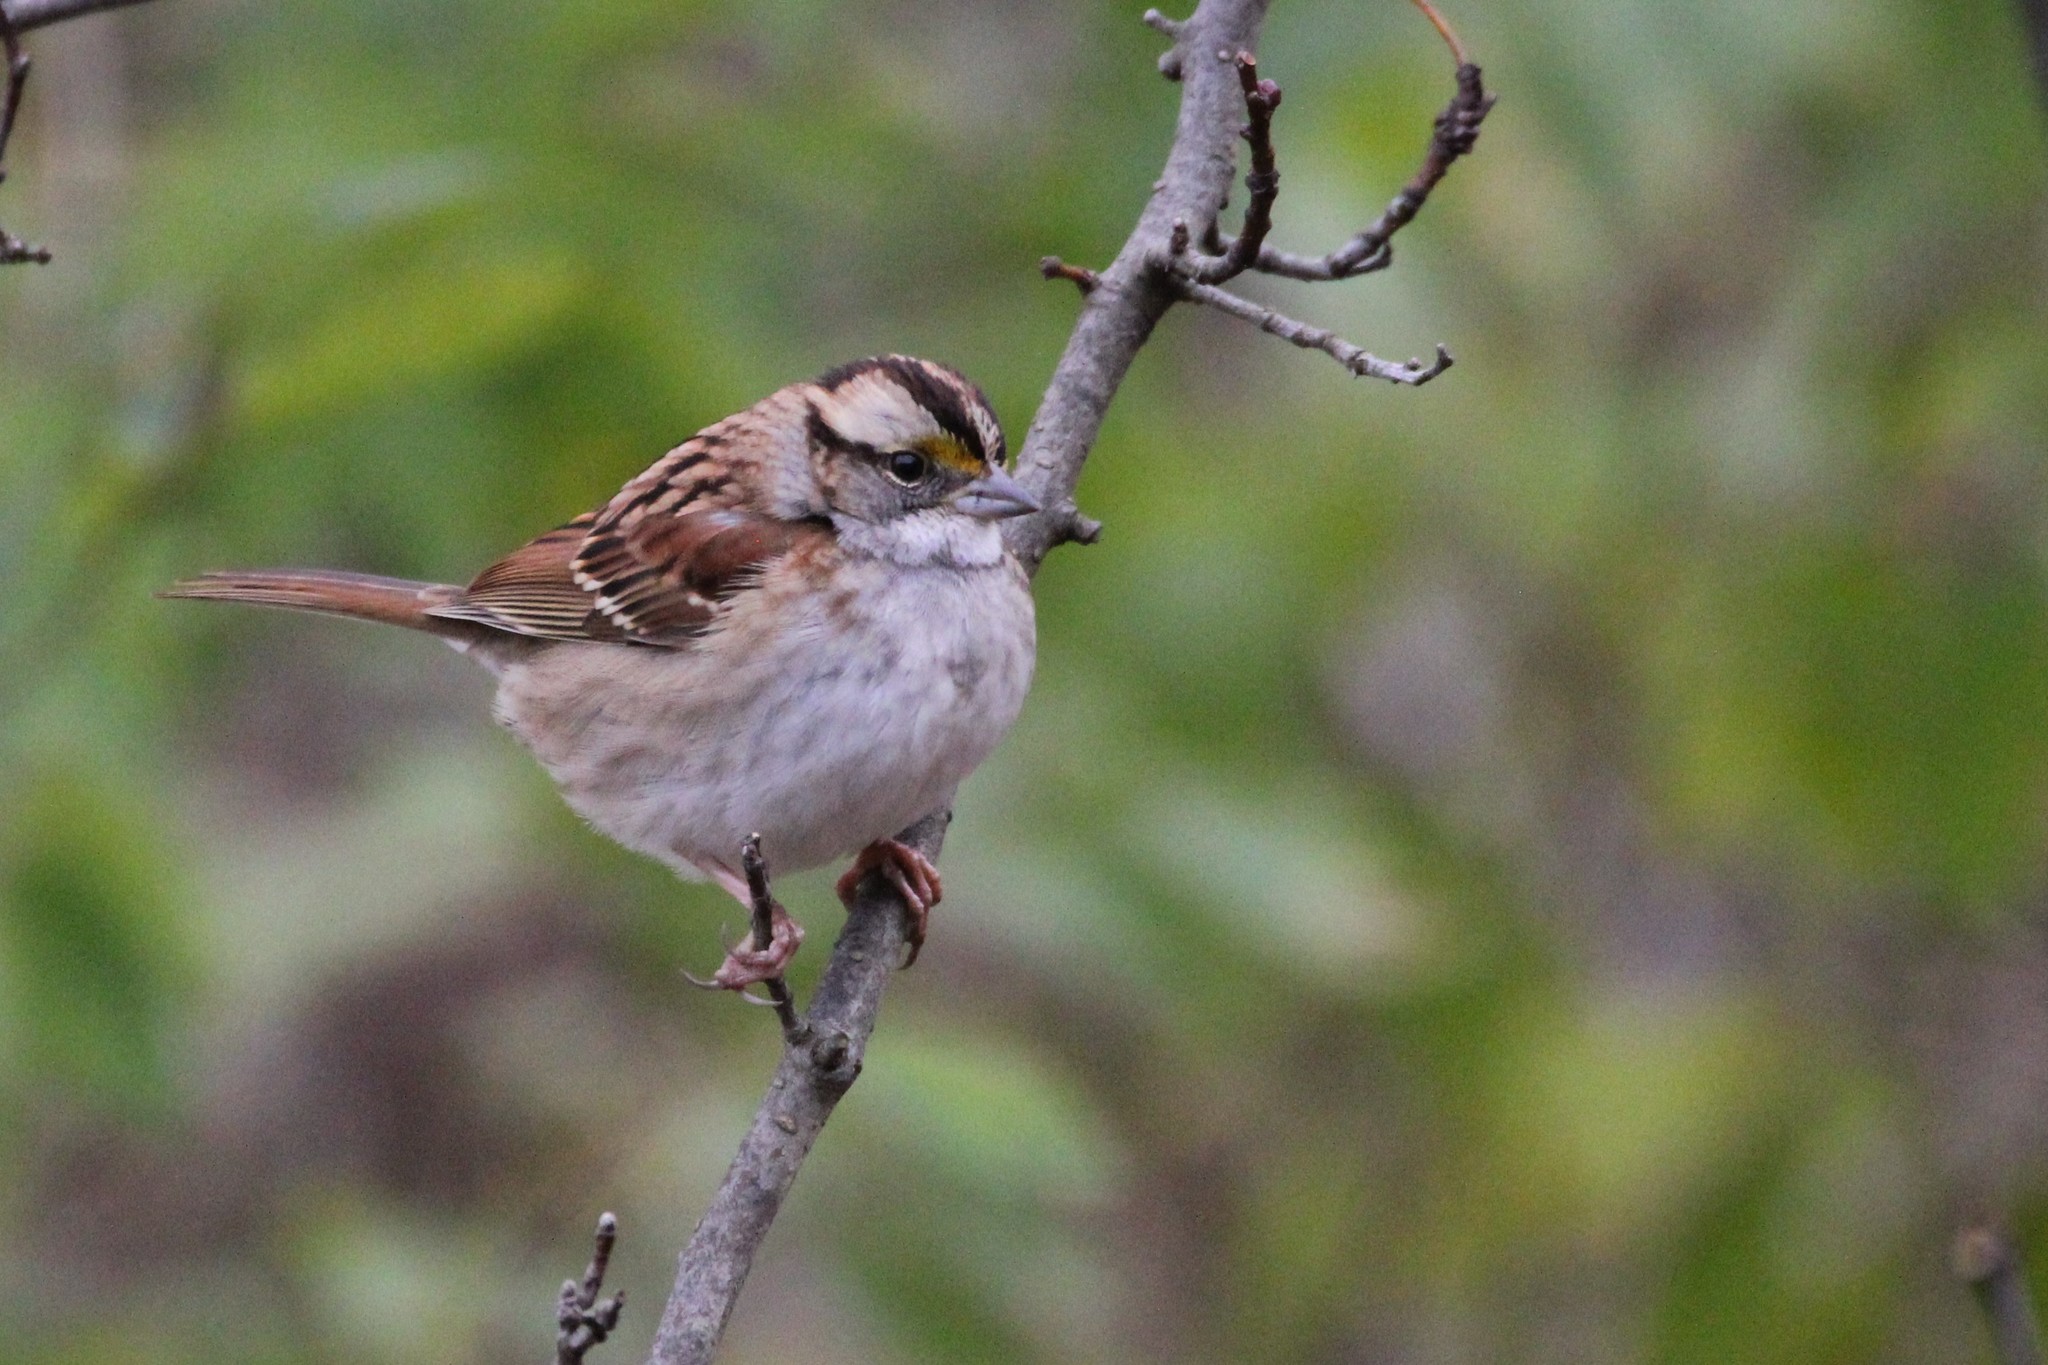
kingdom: Animalia
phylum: Chordata
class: Aves
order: Passeriformes
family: Passerellidae
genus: Zonotrichia
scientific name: Zonotrichia albicollis
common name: White-throated sparrow
